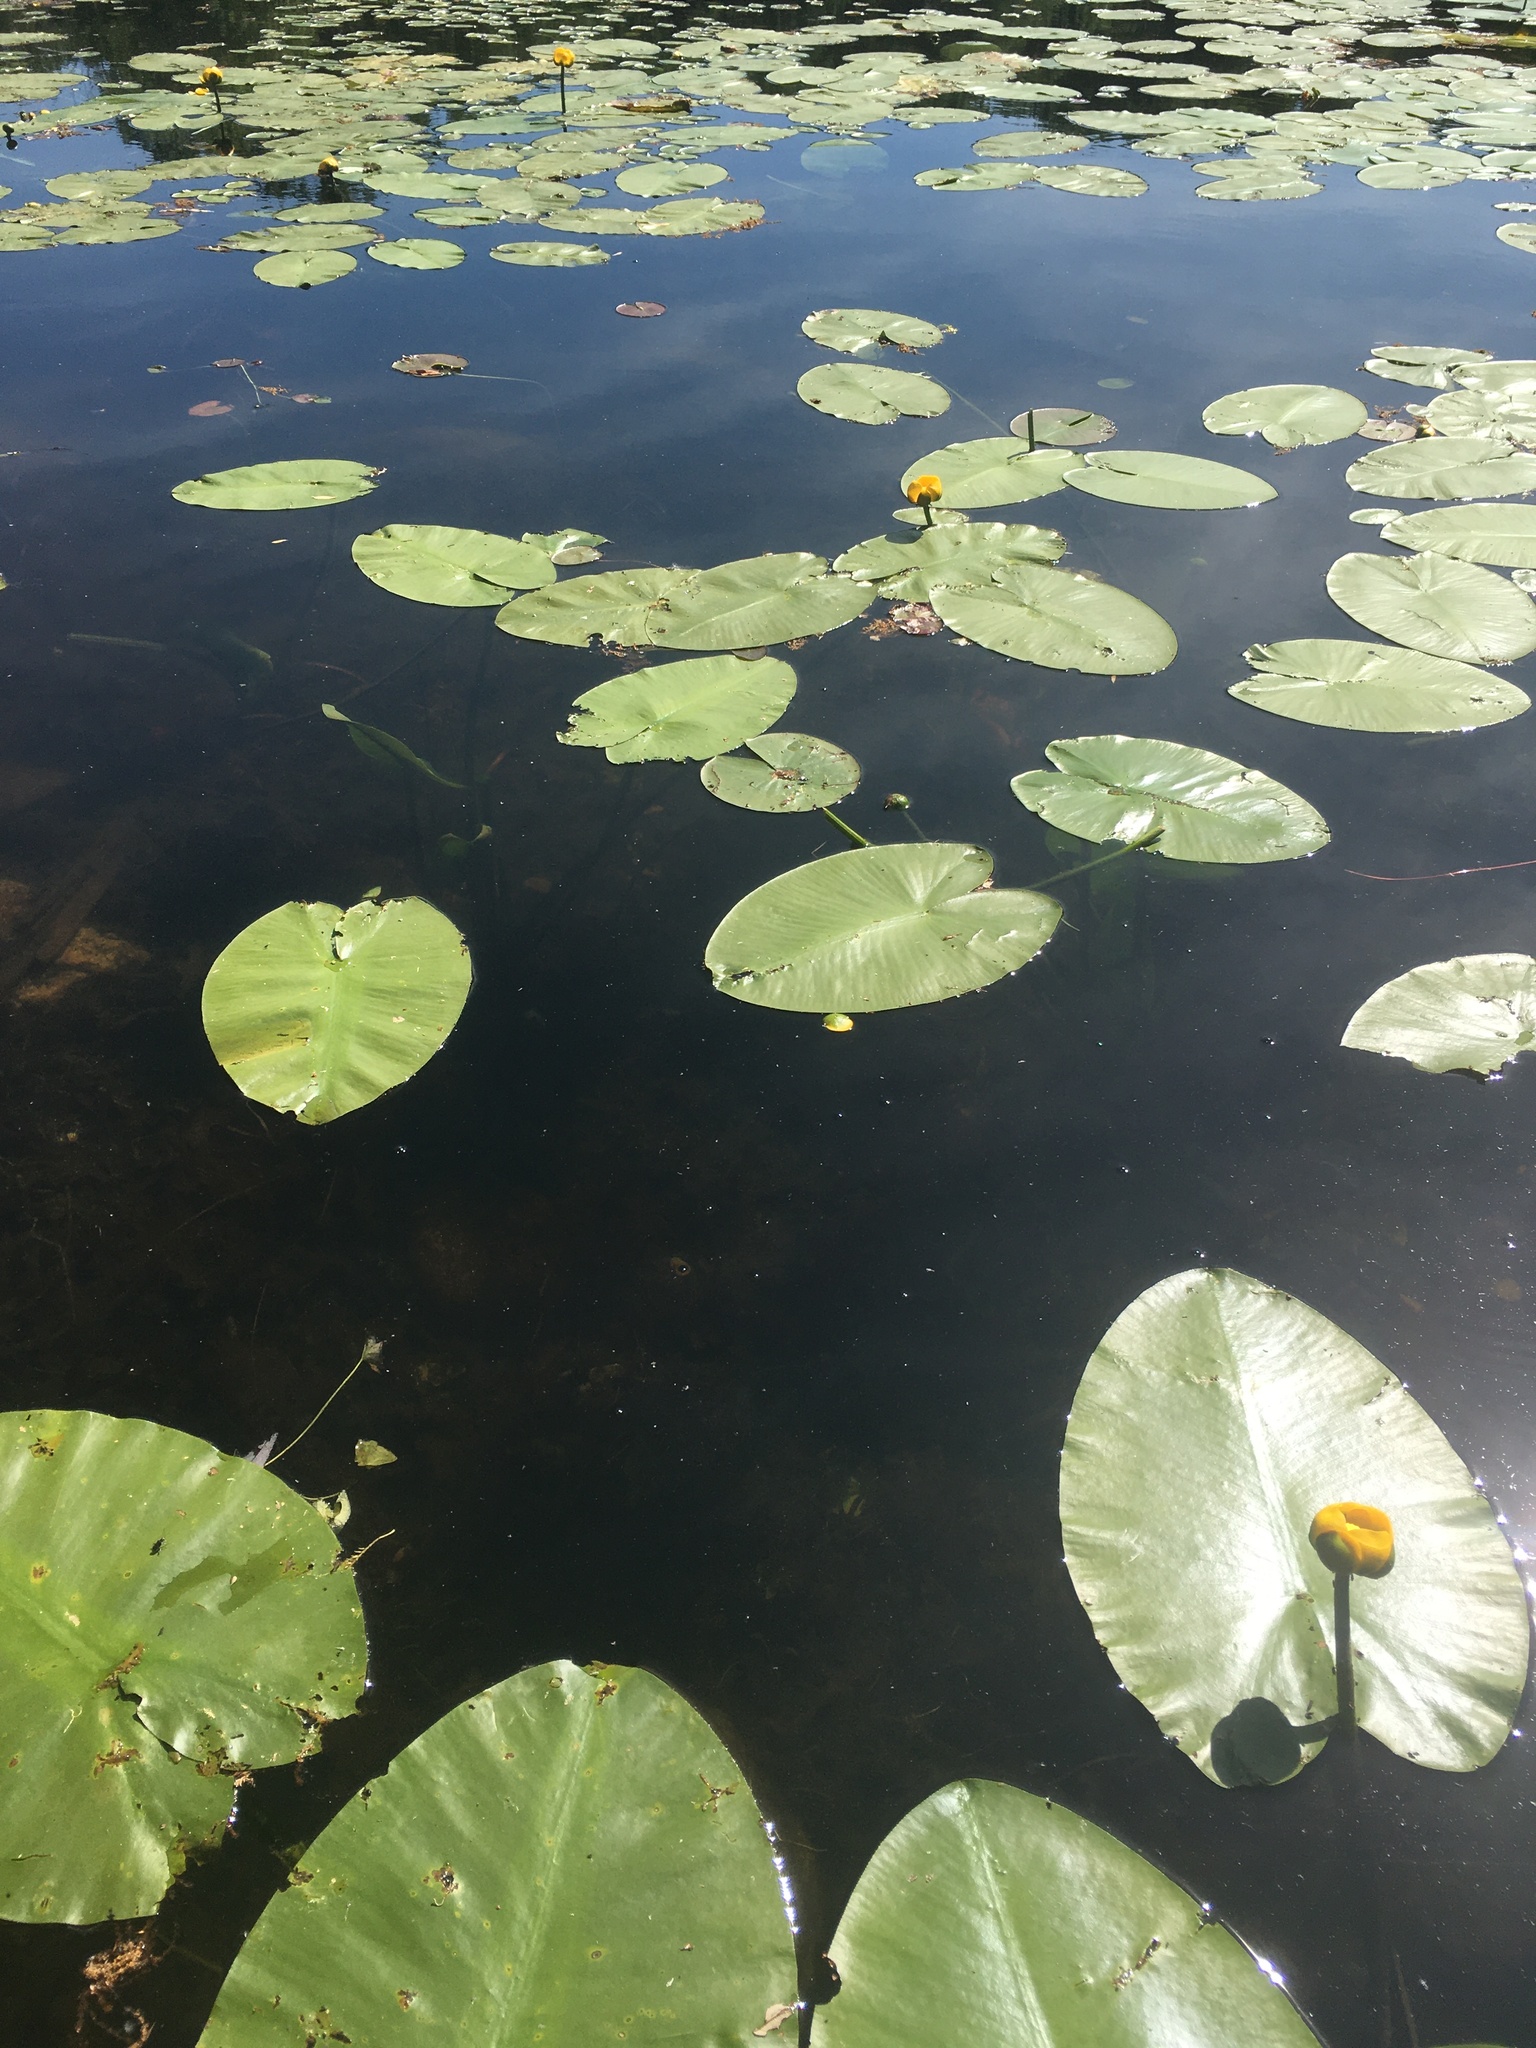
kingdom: Plantae
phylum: Tracheophyta
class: Magnoliopsida
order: Nymphaeales
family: Nymphaeaceae
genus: Nuphar
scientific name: Nuphar variegata
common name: Beaver-root
